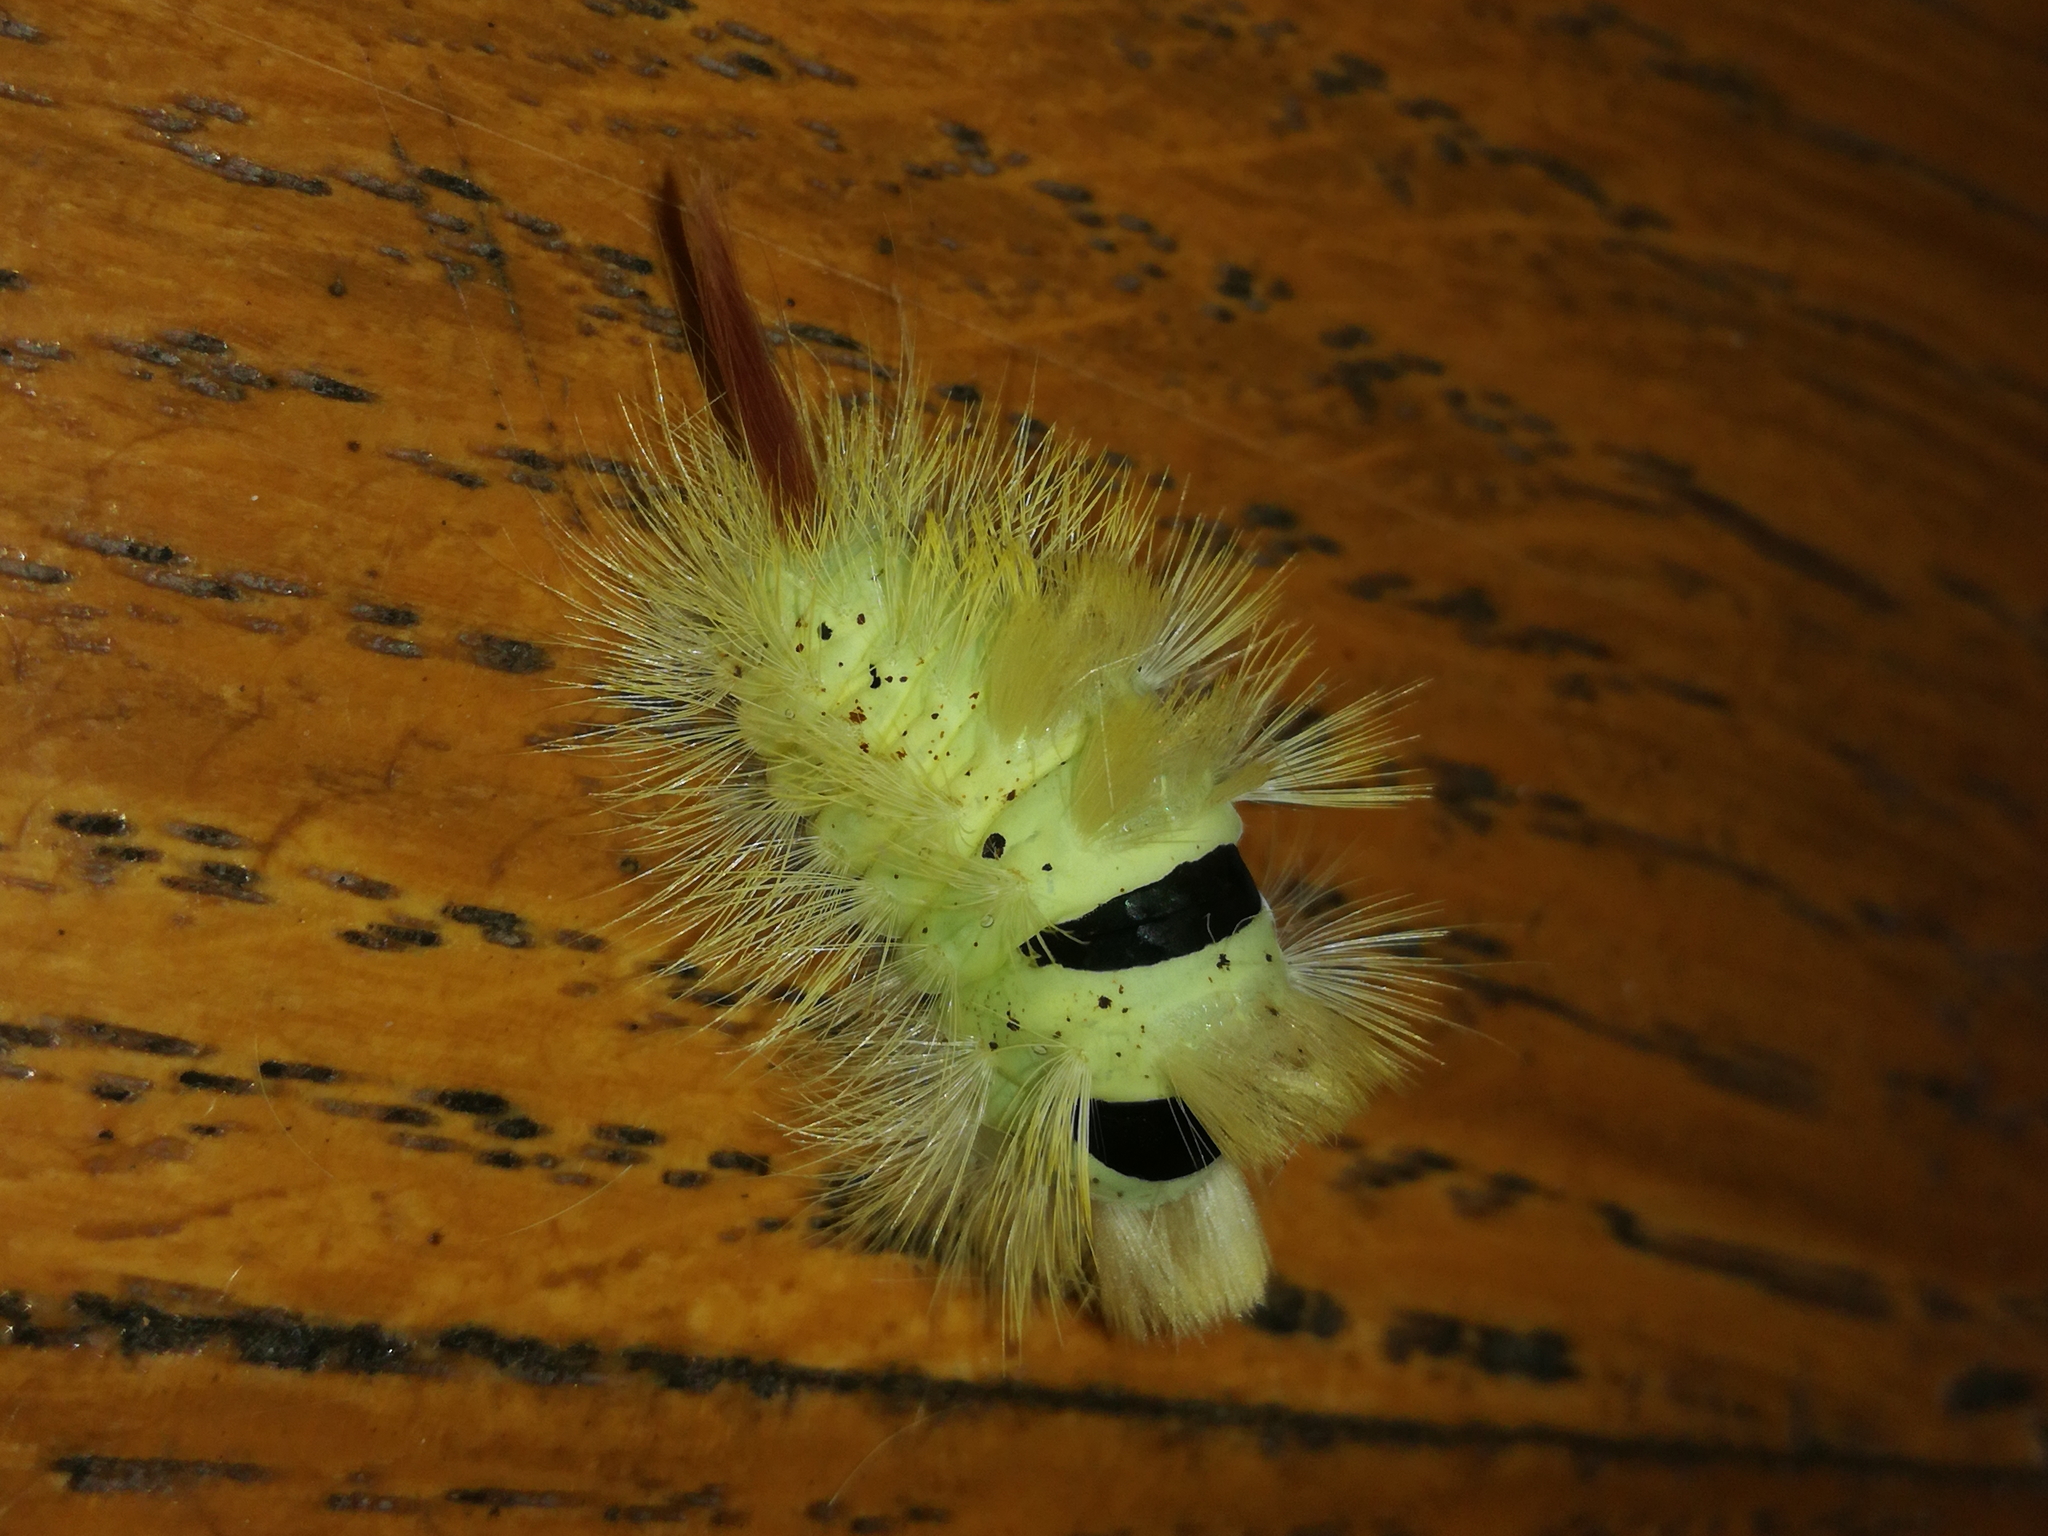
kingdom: Animalia
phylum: Arthropoda
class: Insecta
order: Lepidoptera
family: Erebidae
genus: Calliteara
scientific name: Calliteara pudibunda
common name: Pale tussock
